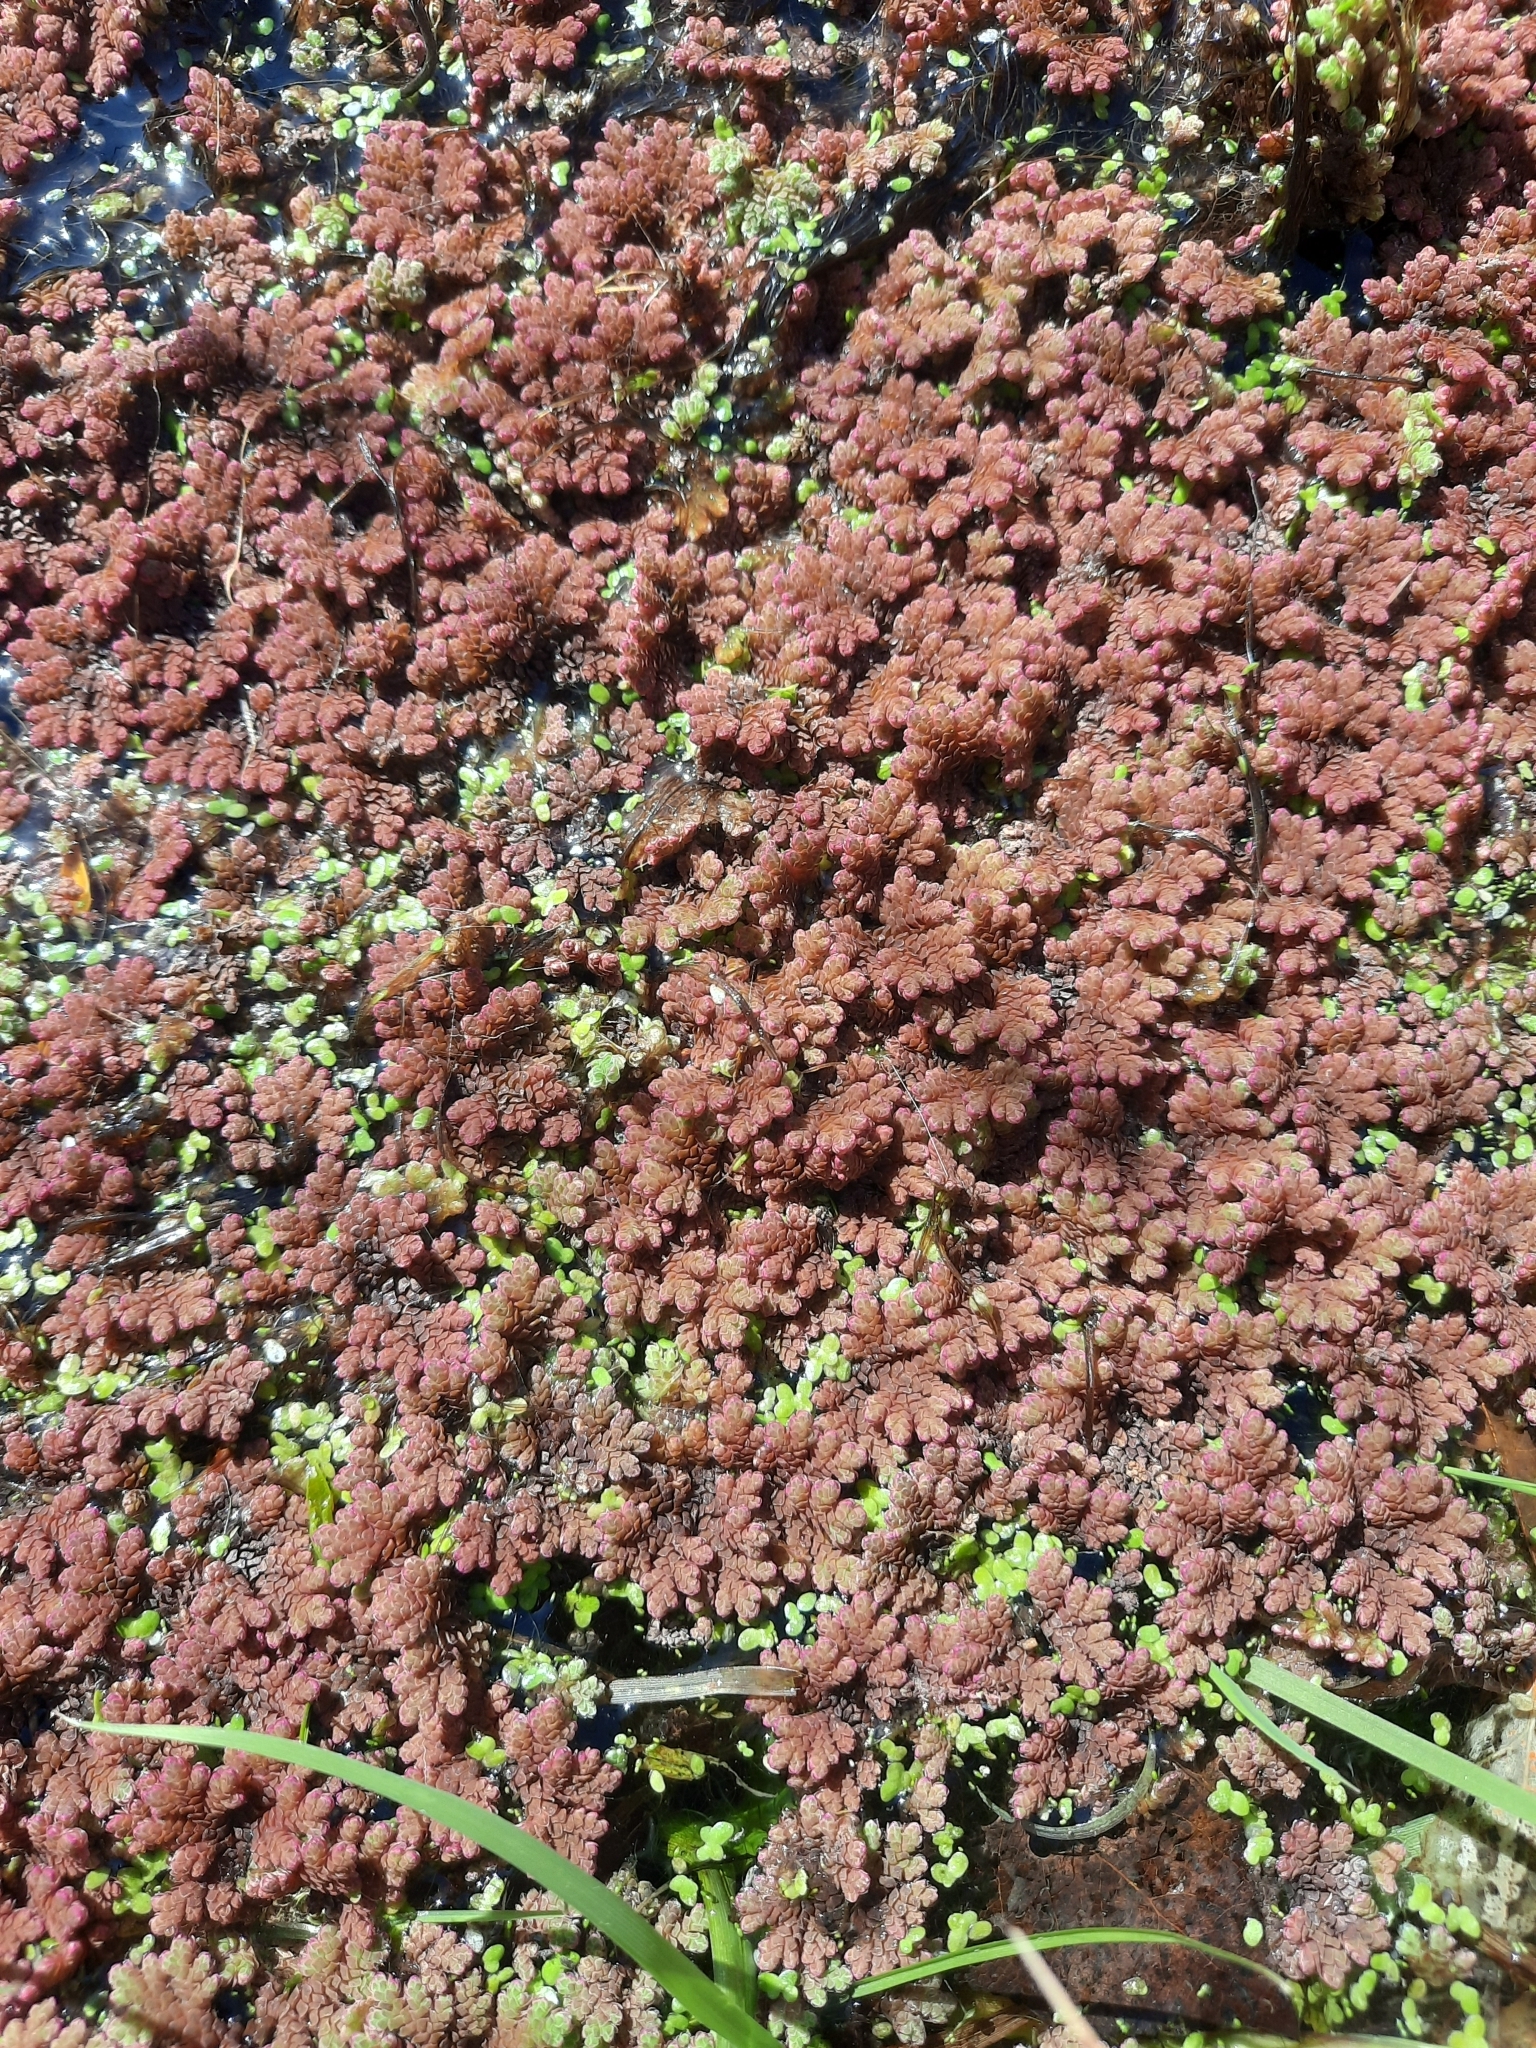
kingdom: Plantae
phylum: Tracheophyta
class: Polypodiopsida
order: Salviniales
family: Salviniaceae
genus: Azolla
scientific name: Azolla rubra
